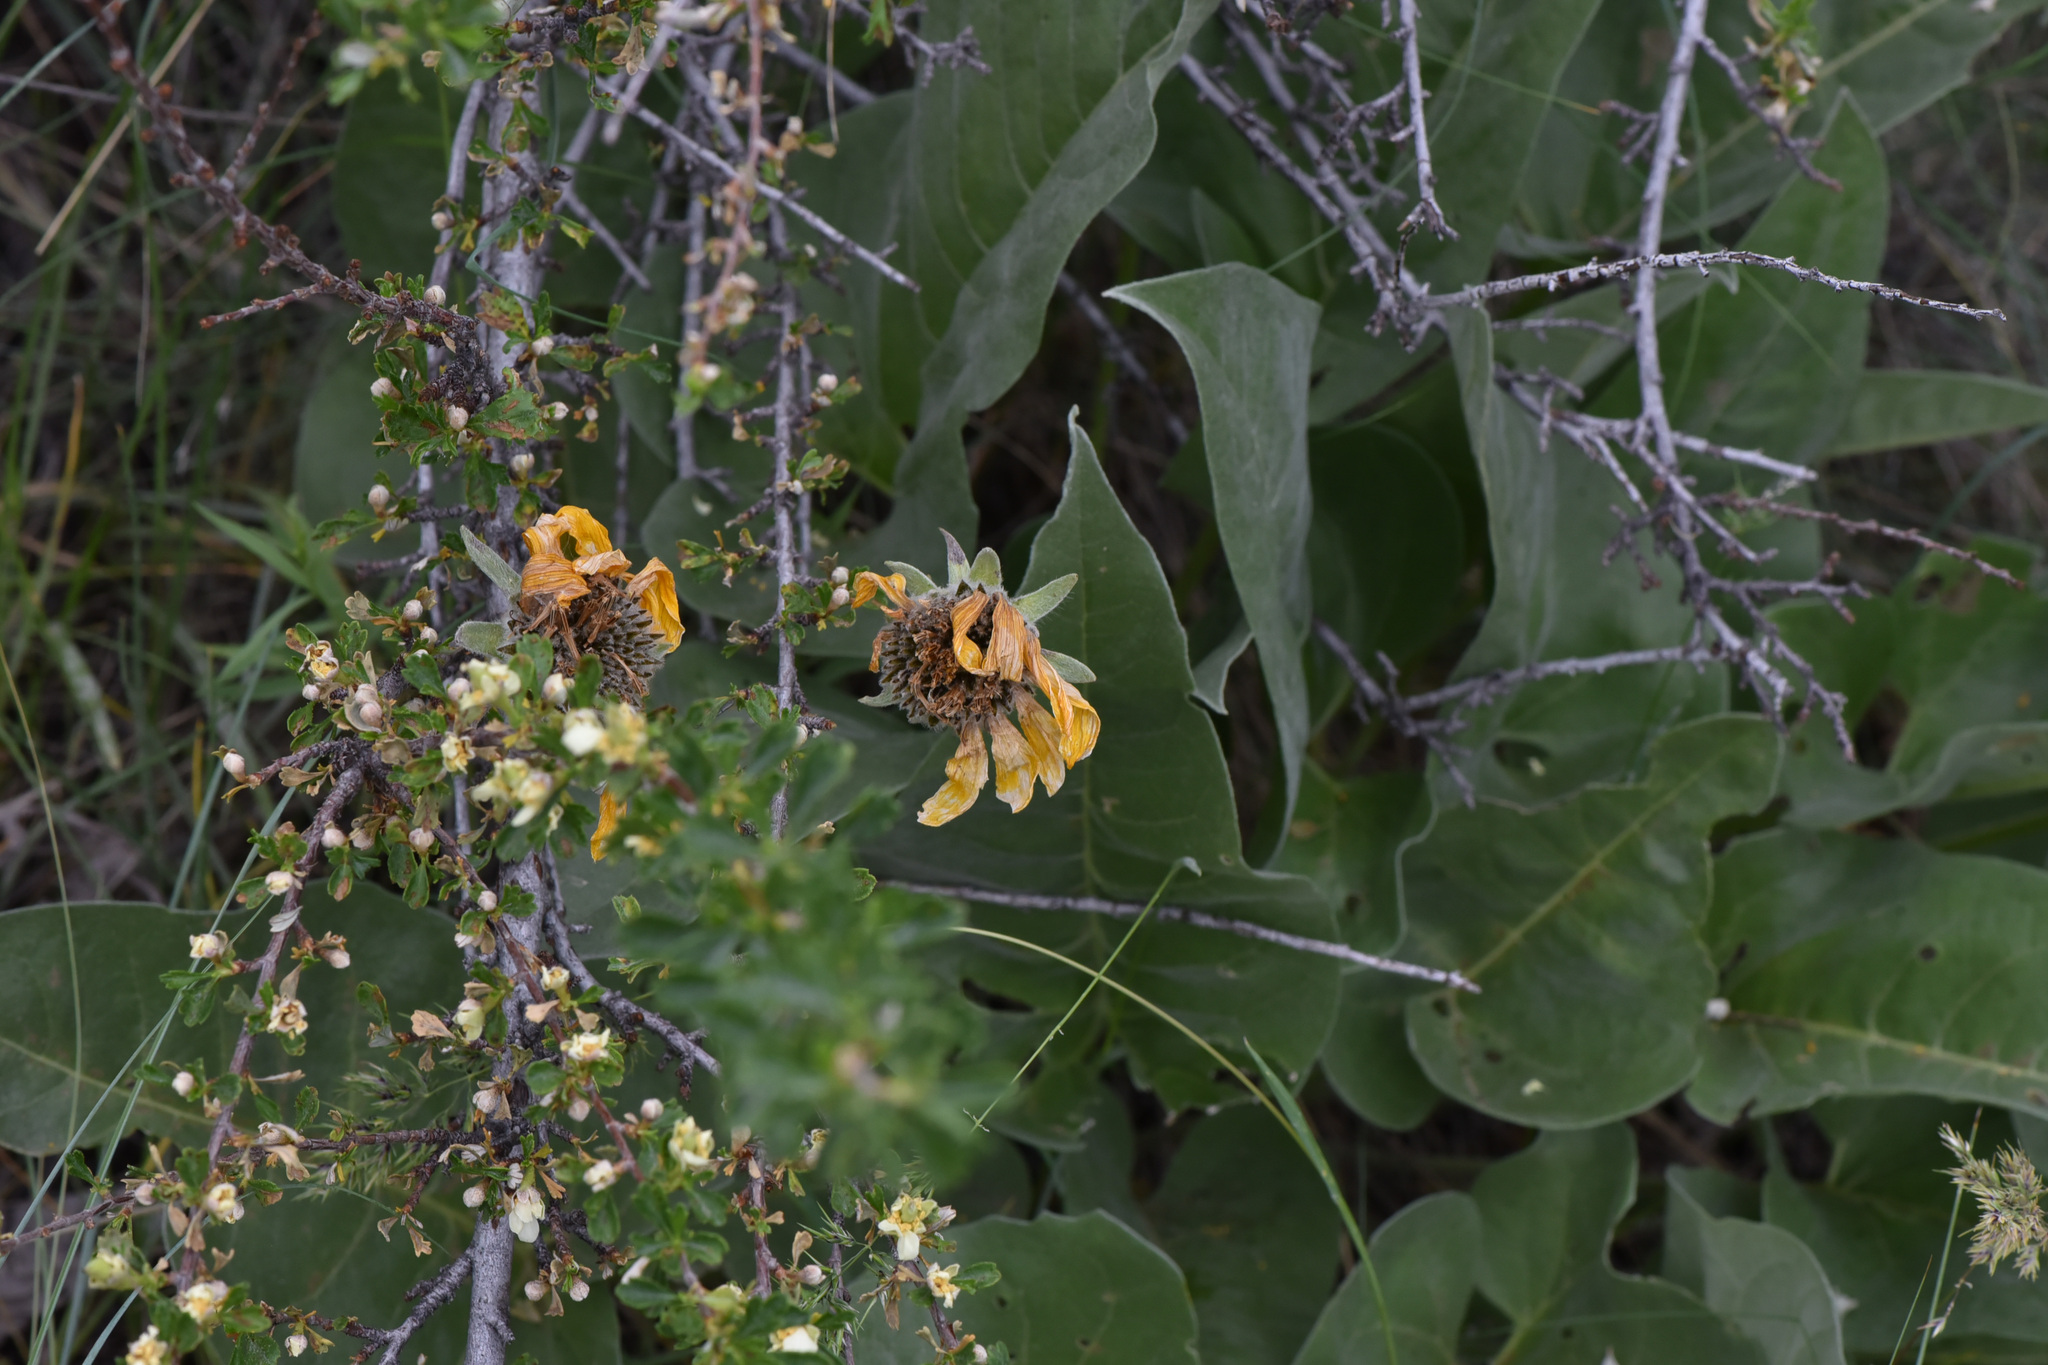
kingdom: Plantae
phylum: Tracheophyta
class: Magnoliopsida
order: Asterales
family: Asteraceae
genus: Wyethia
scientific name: Wyethia sagittata
